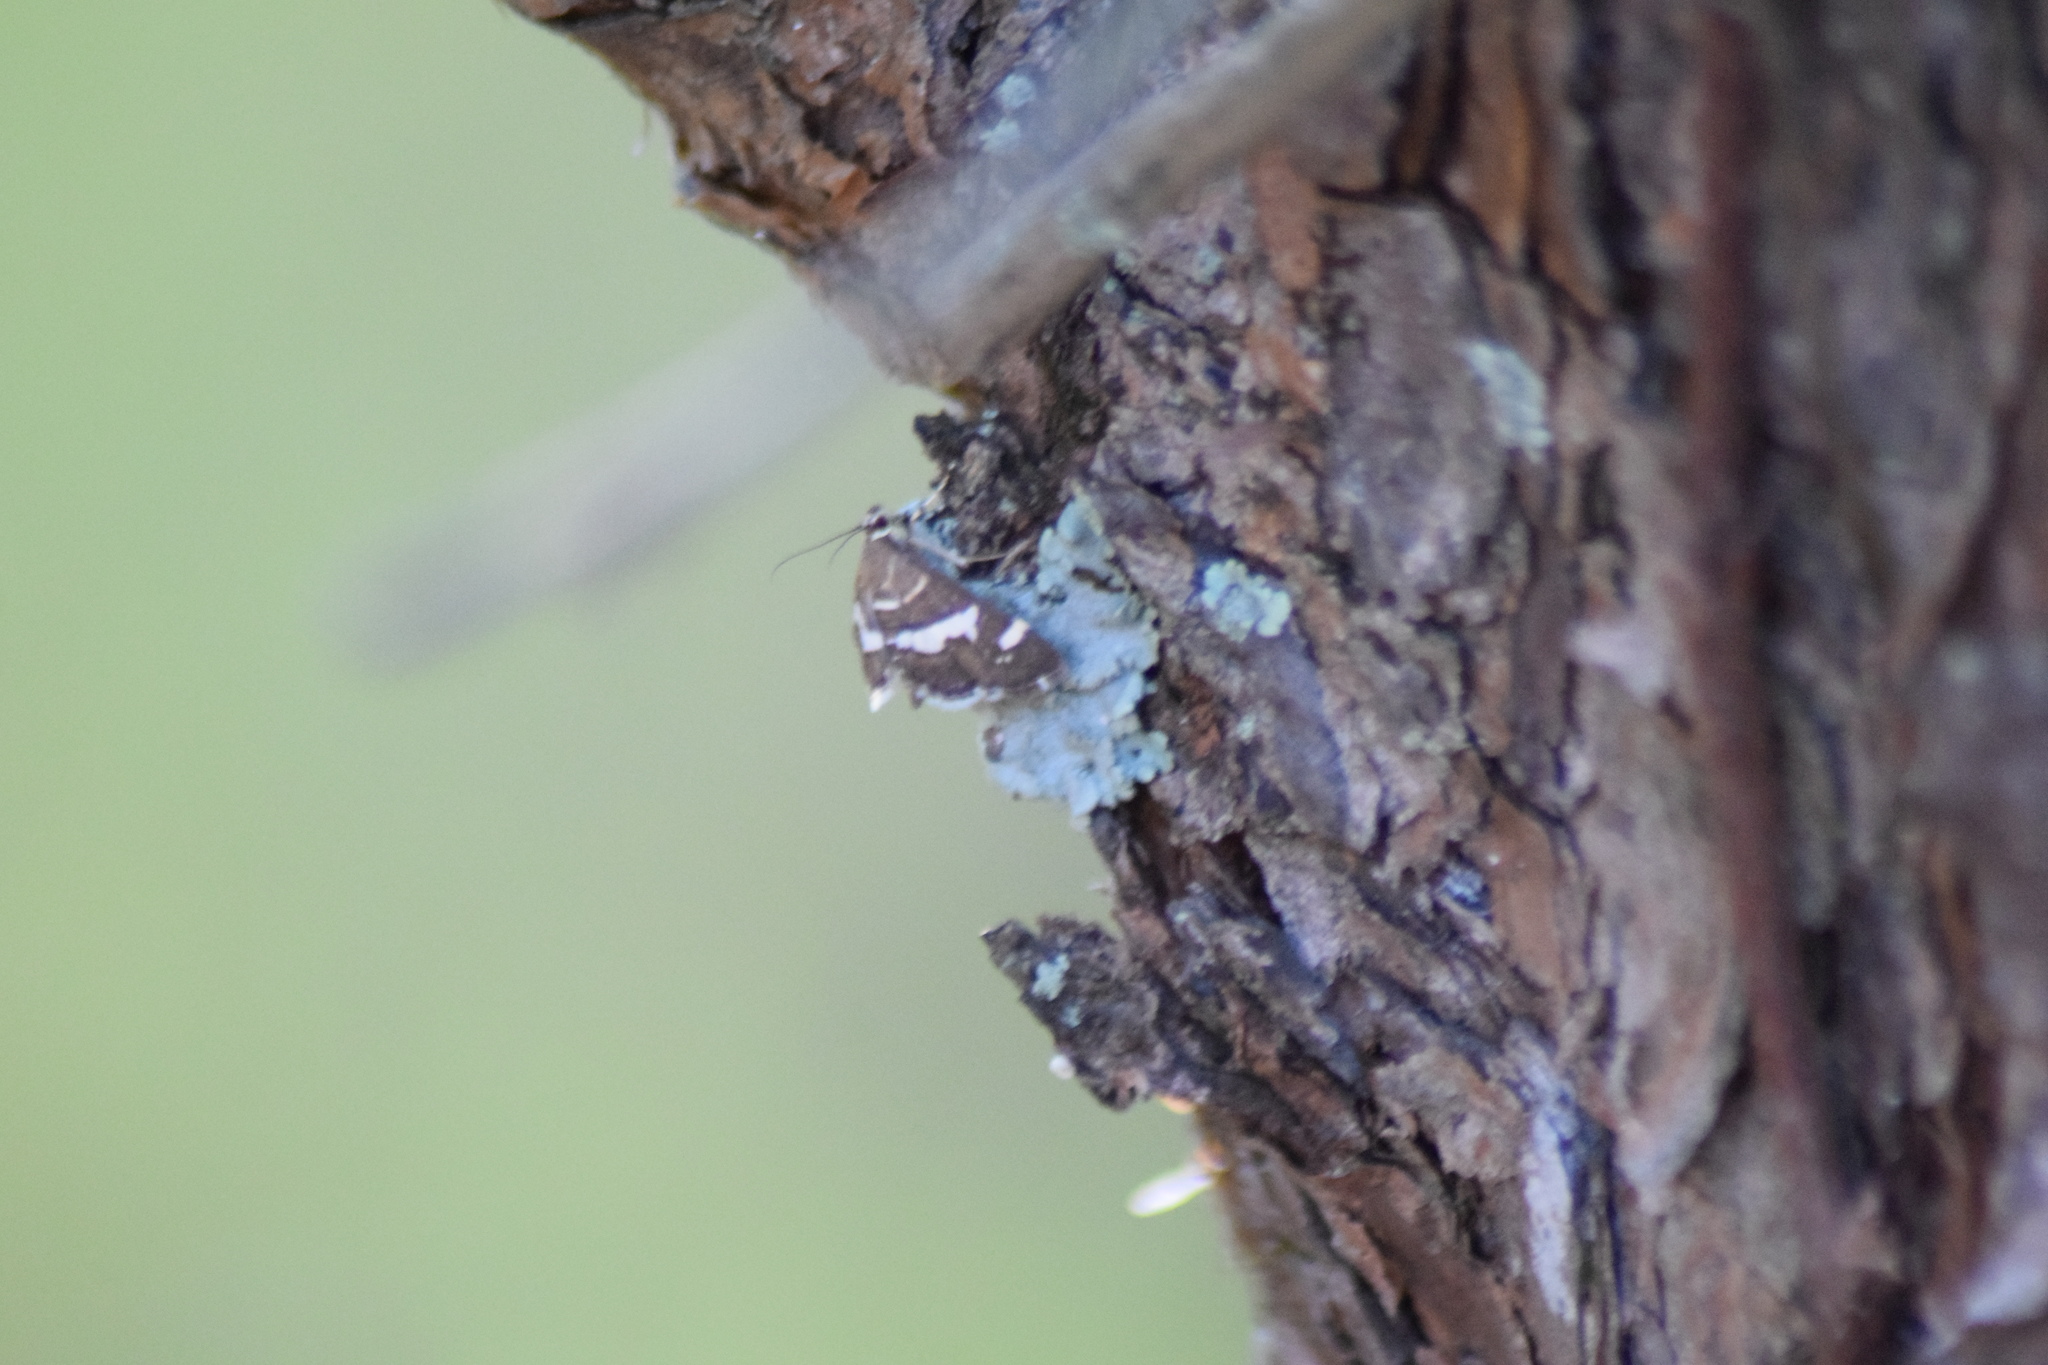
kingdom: Animalia
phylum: Arthropoda
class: Insecta
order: Lepidoptera
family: Crambidae
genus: Spoladea
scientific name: Spoladea recurvalis
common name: Beet webworm moth
